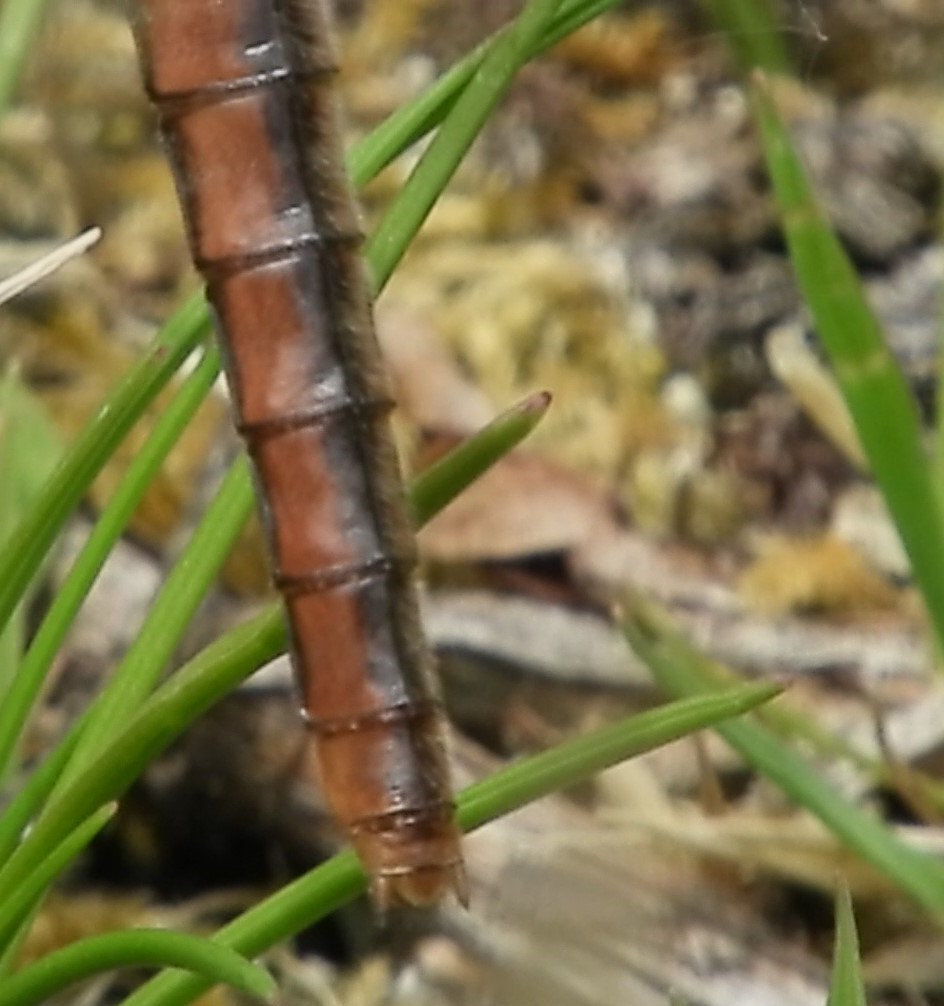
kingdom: Animalia
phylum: Arthropoda
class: Insecta
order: Odonata
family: Libellulidae
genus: Ladona
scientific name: Ladona julia
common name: Chalk-fronted corporal
